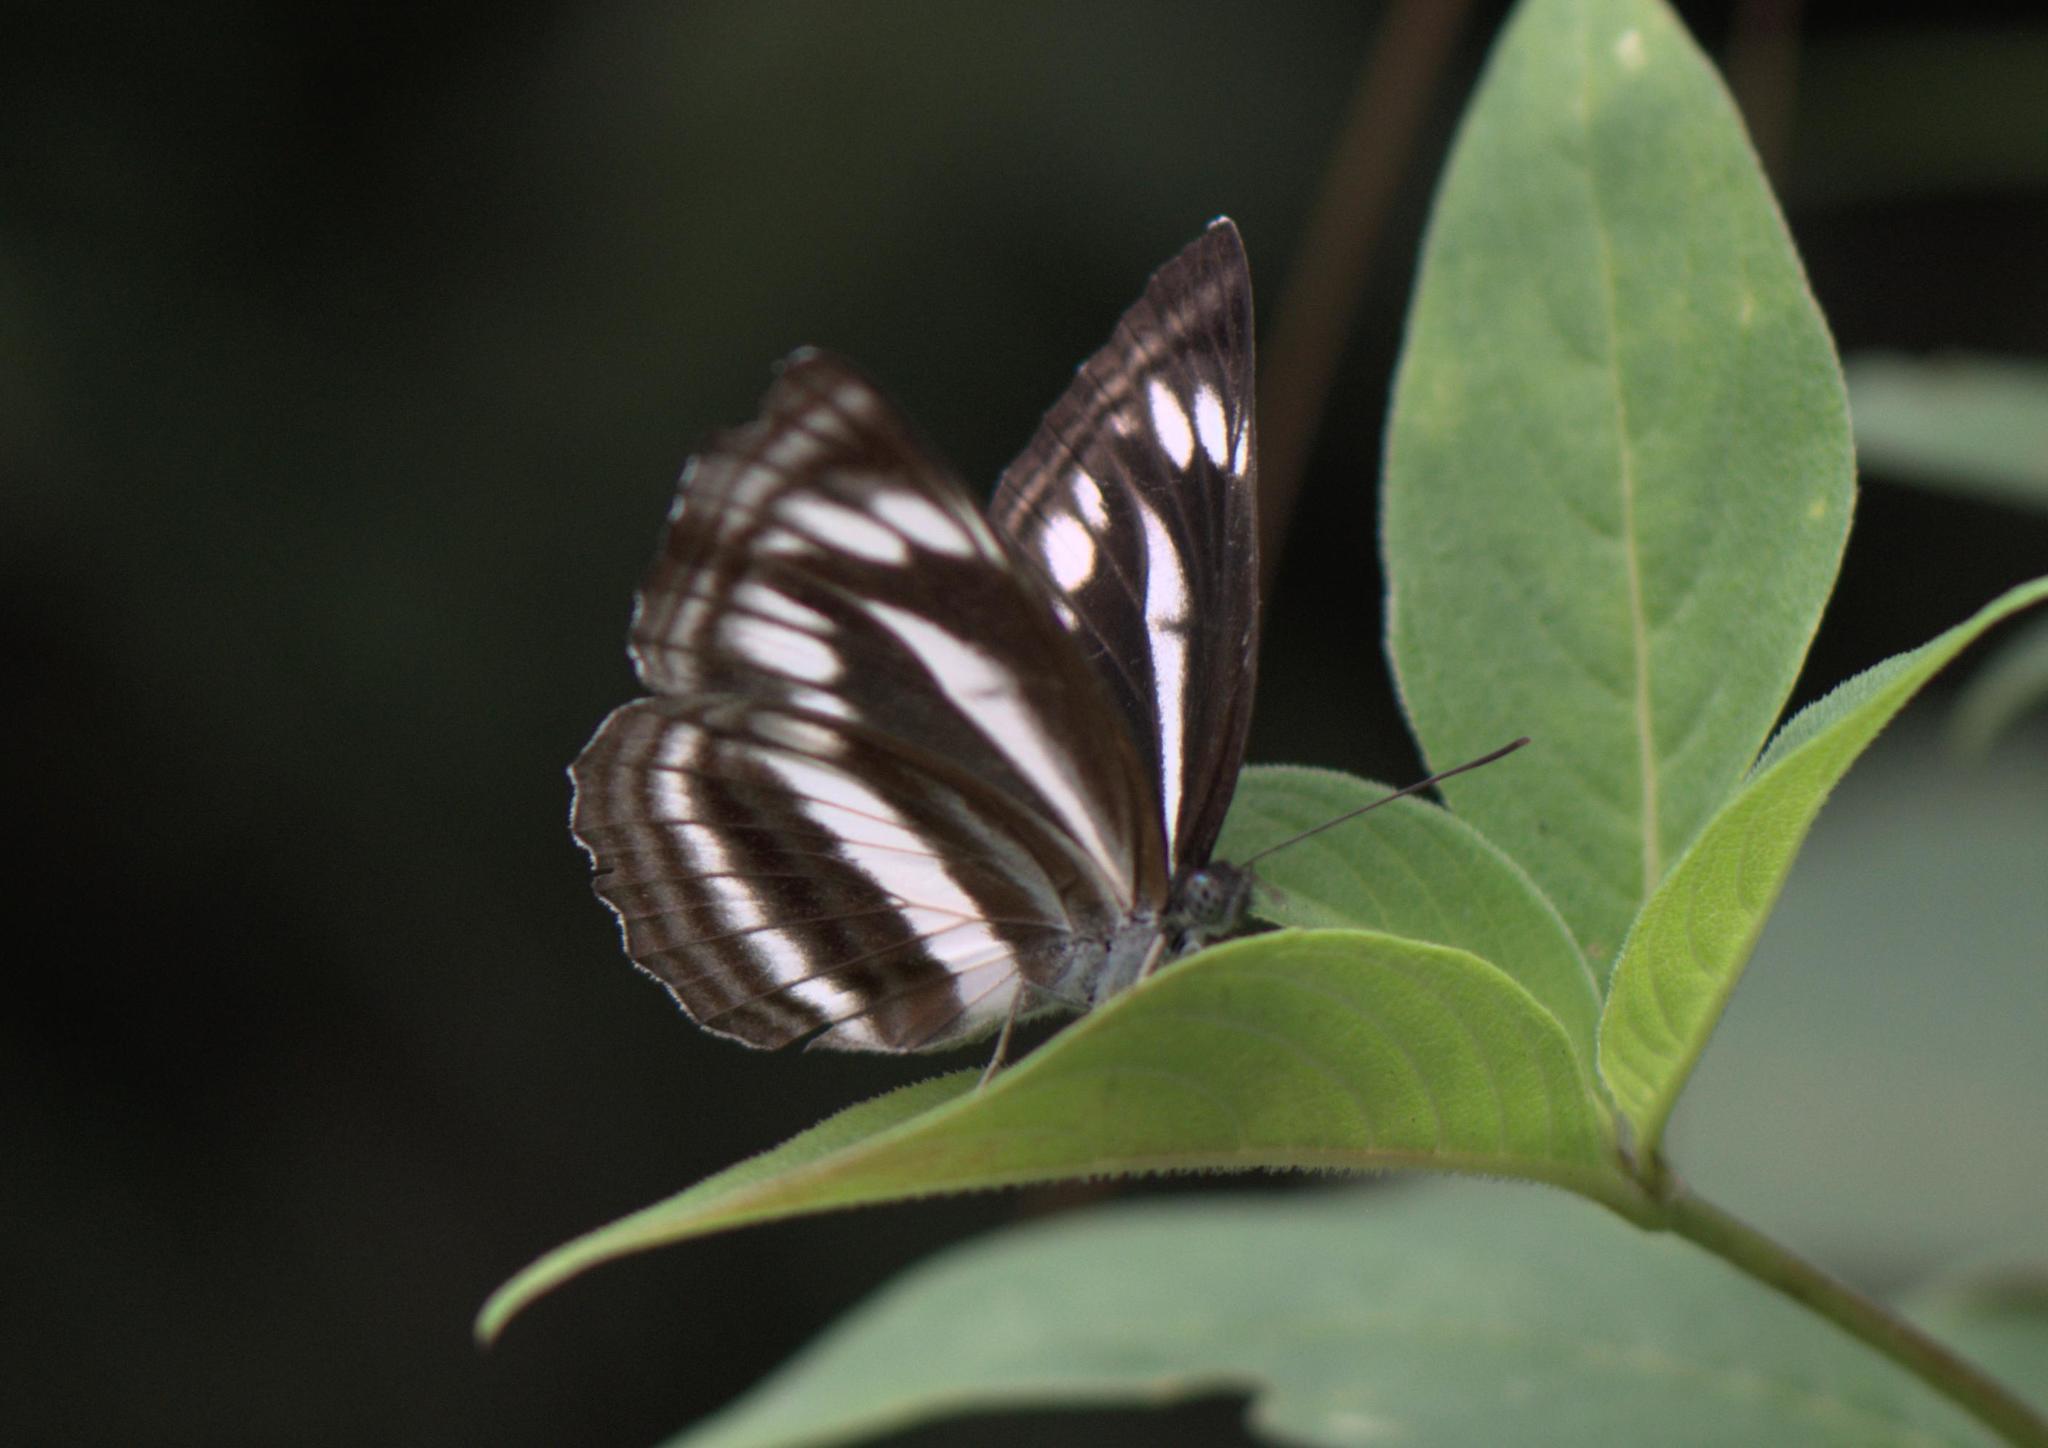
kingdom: Animalia
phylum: Arthropoda
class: Insecta
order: Lepidoptera
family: Nymphalidae
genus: Neptis
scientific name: Neptis sankara
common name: Broad-banded sailer
